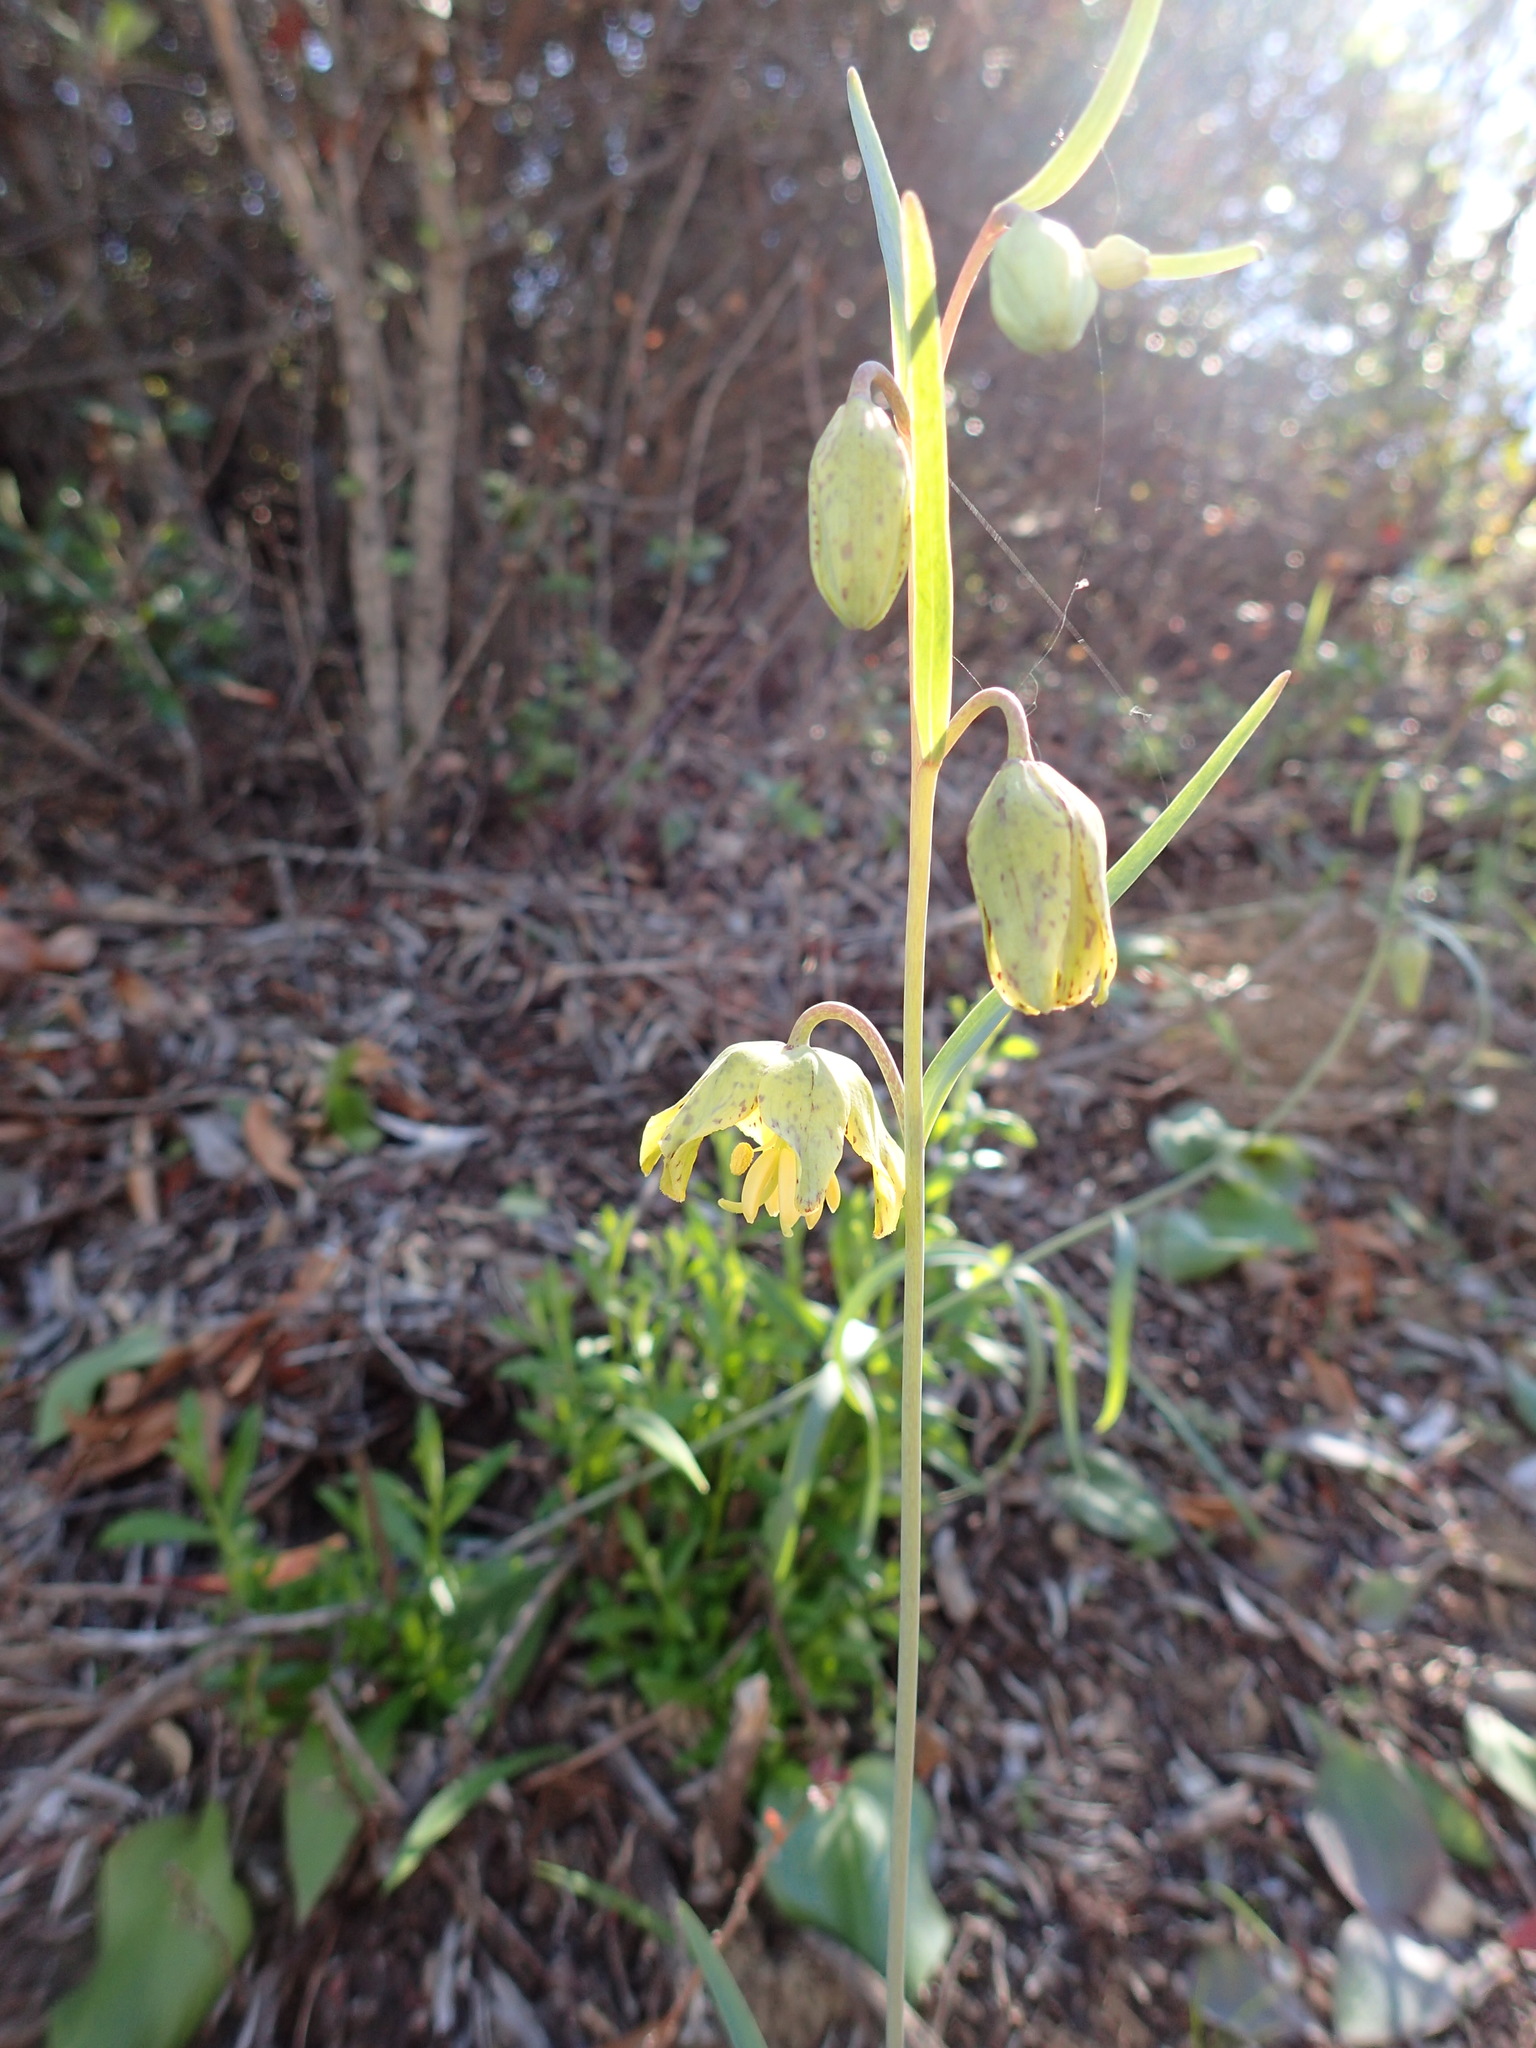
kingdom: Plantae
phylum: Tracheophyta
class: Liliopsida
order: Liliales
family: Liliaceae
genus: Fritillaria
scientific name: Fritillaria ojaiensis
